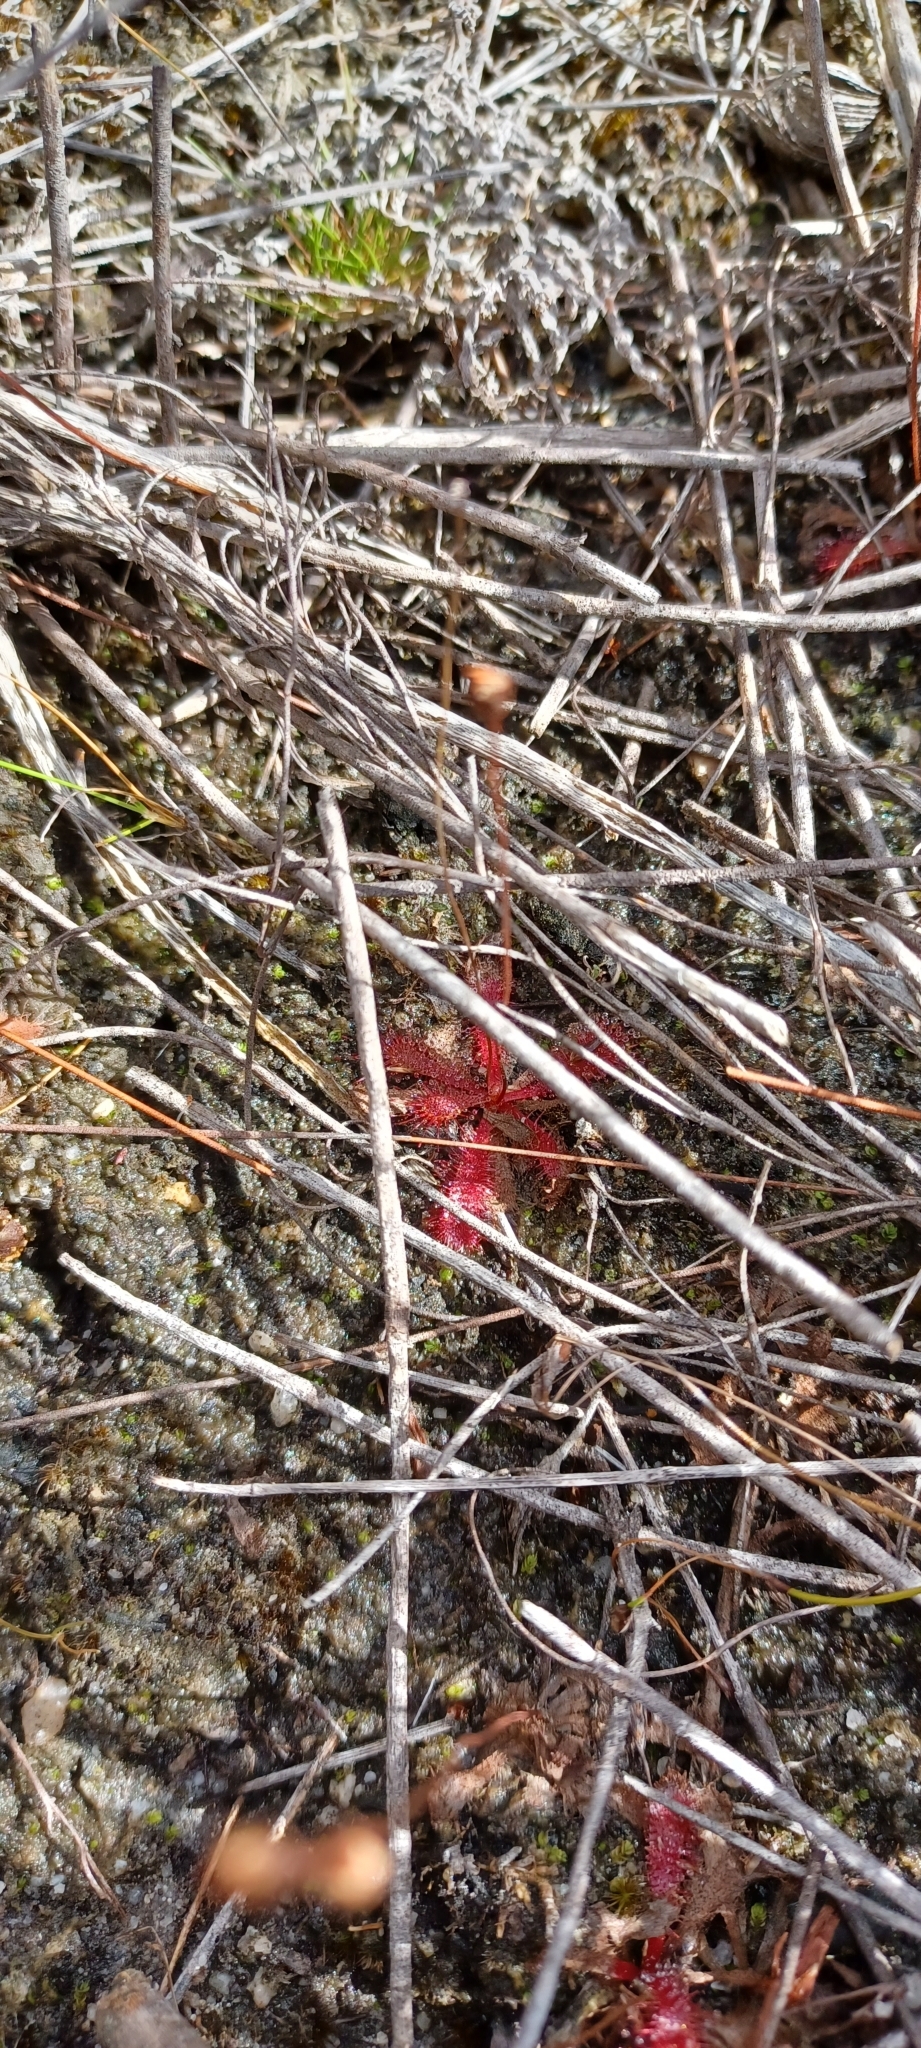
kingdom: Plantae
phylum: Tracheophyta
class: Magnoliopsida
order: Caryophyllales
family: Droseraceae
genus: Drosera
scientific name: Drosera trinervia
